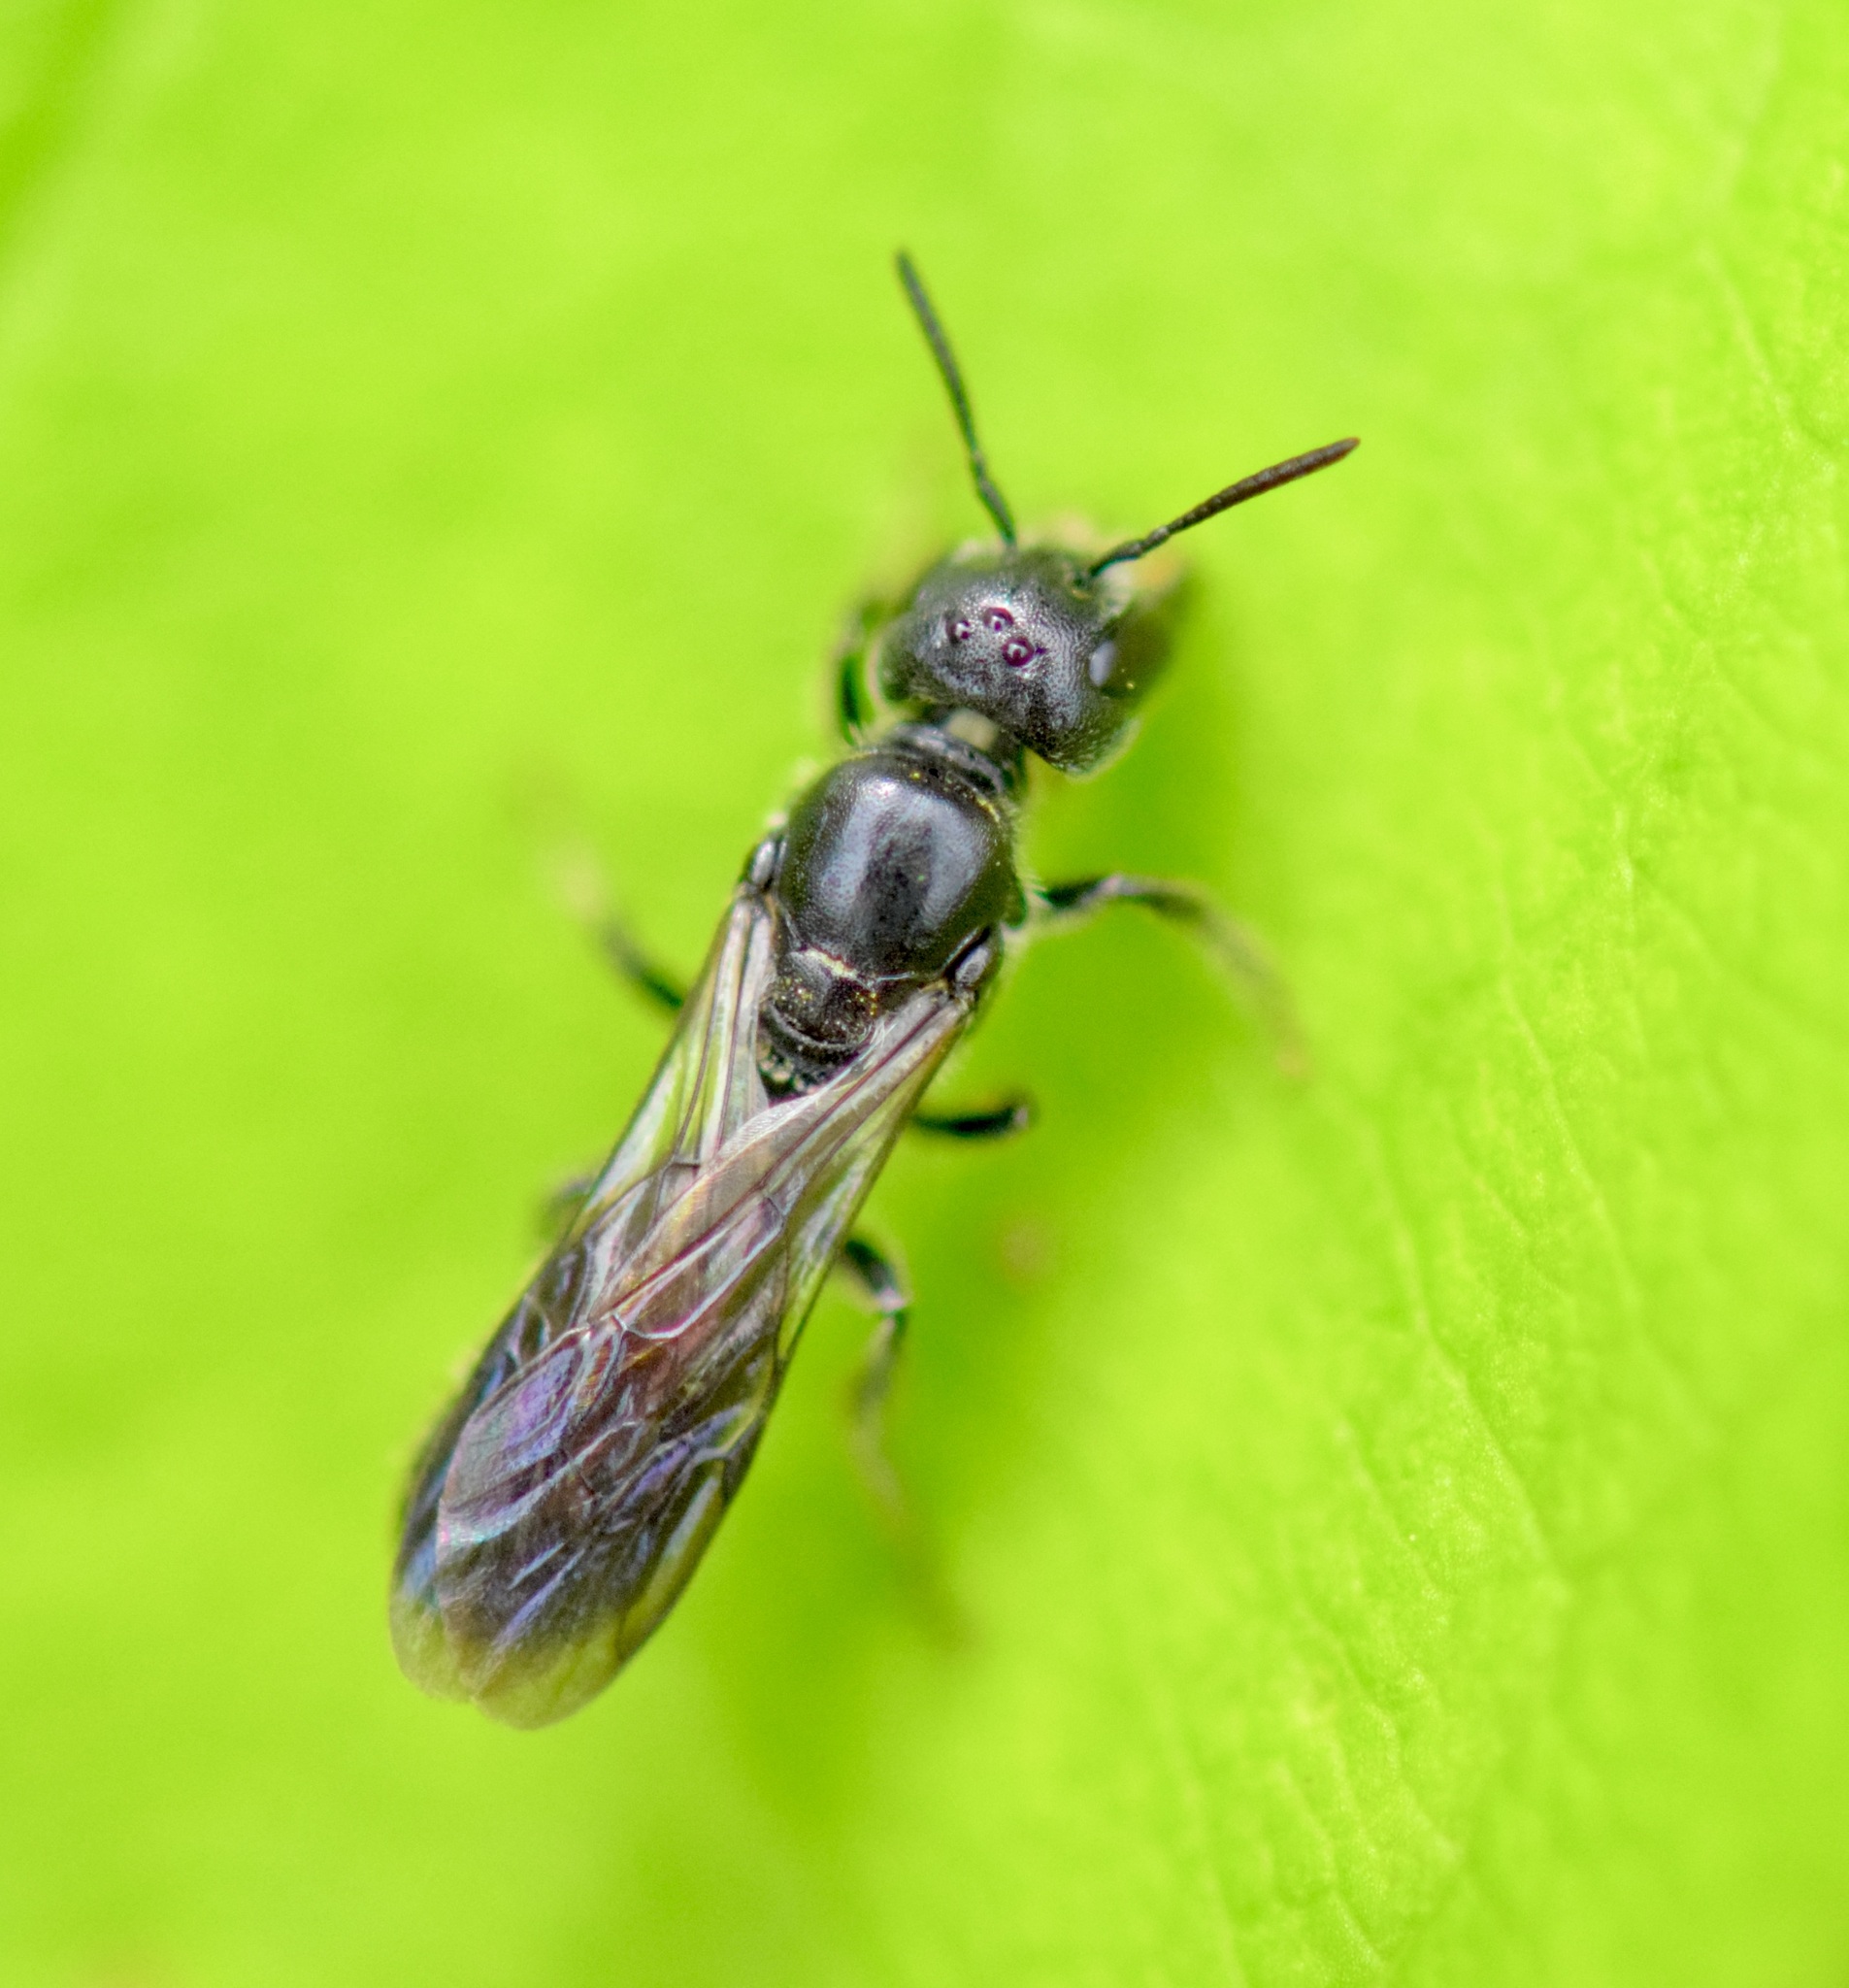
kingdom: Animalia
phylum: Arthropoda
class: Insecta
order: Hymenoptera
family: Megachilidae
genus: Chelostoma
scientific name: Chelostoma philadelphi
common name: Mock-orange scissor bee
